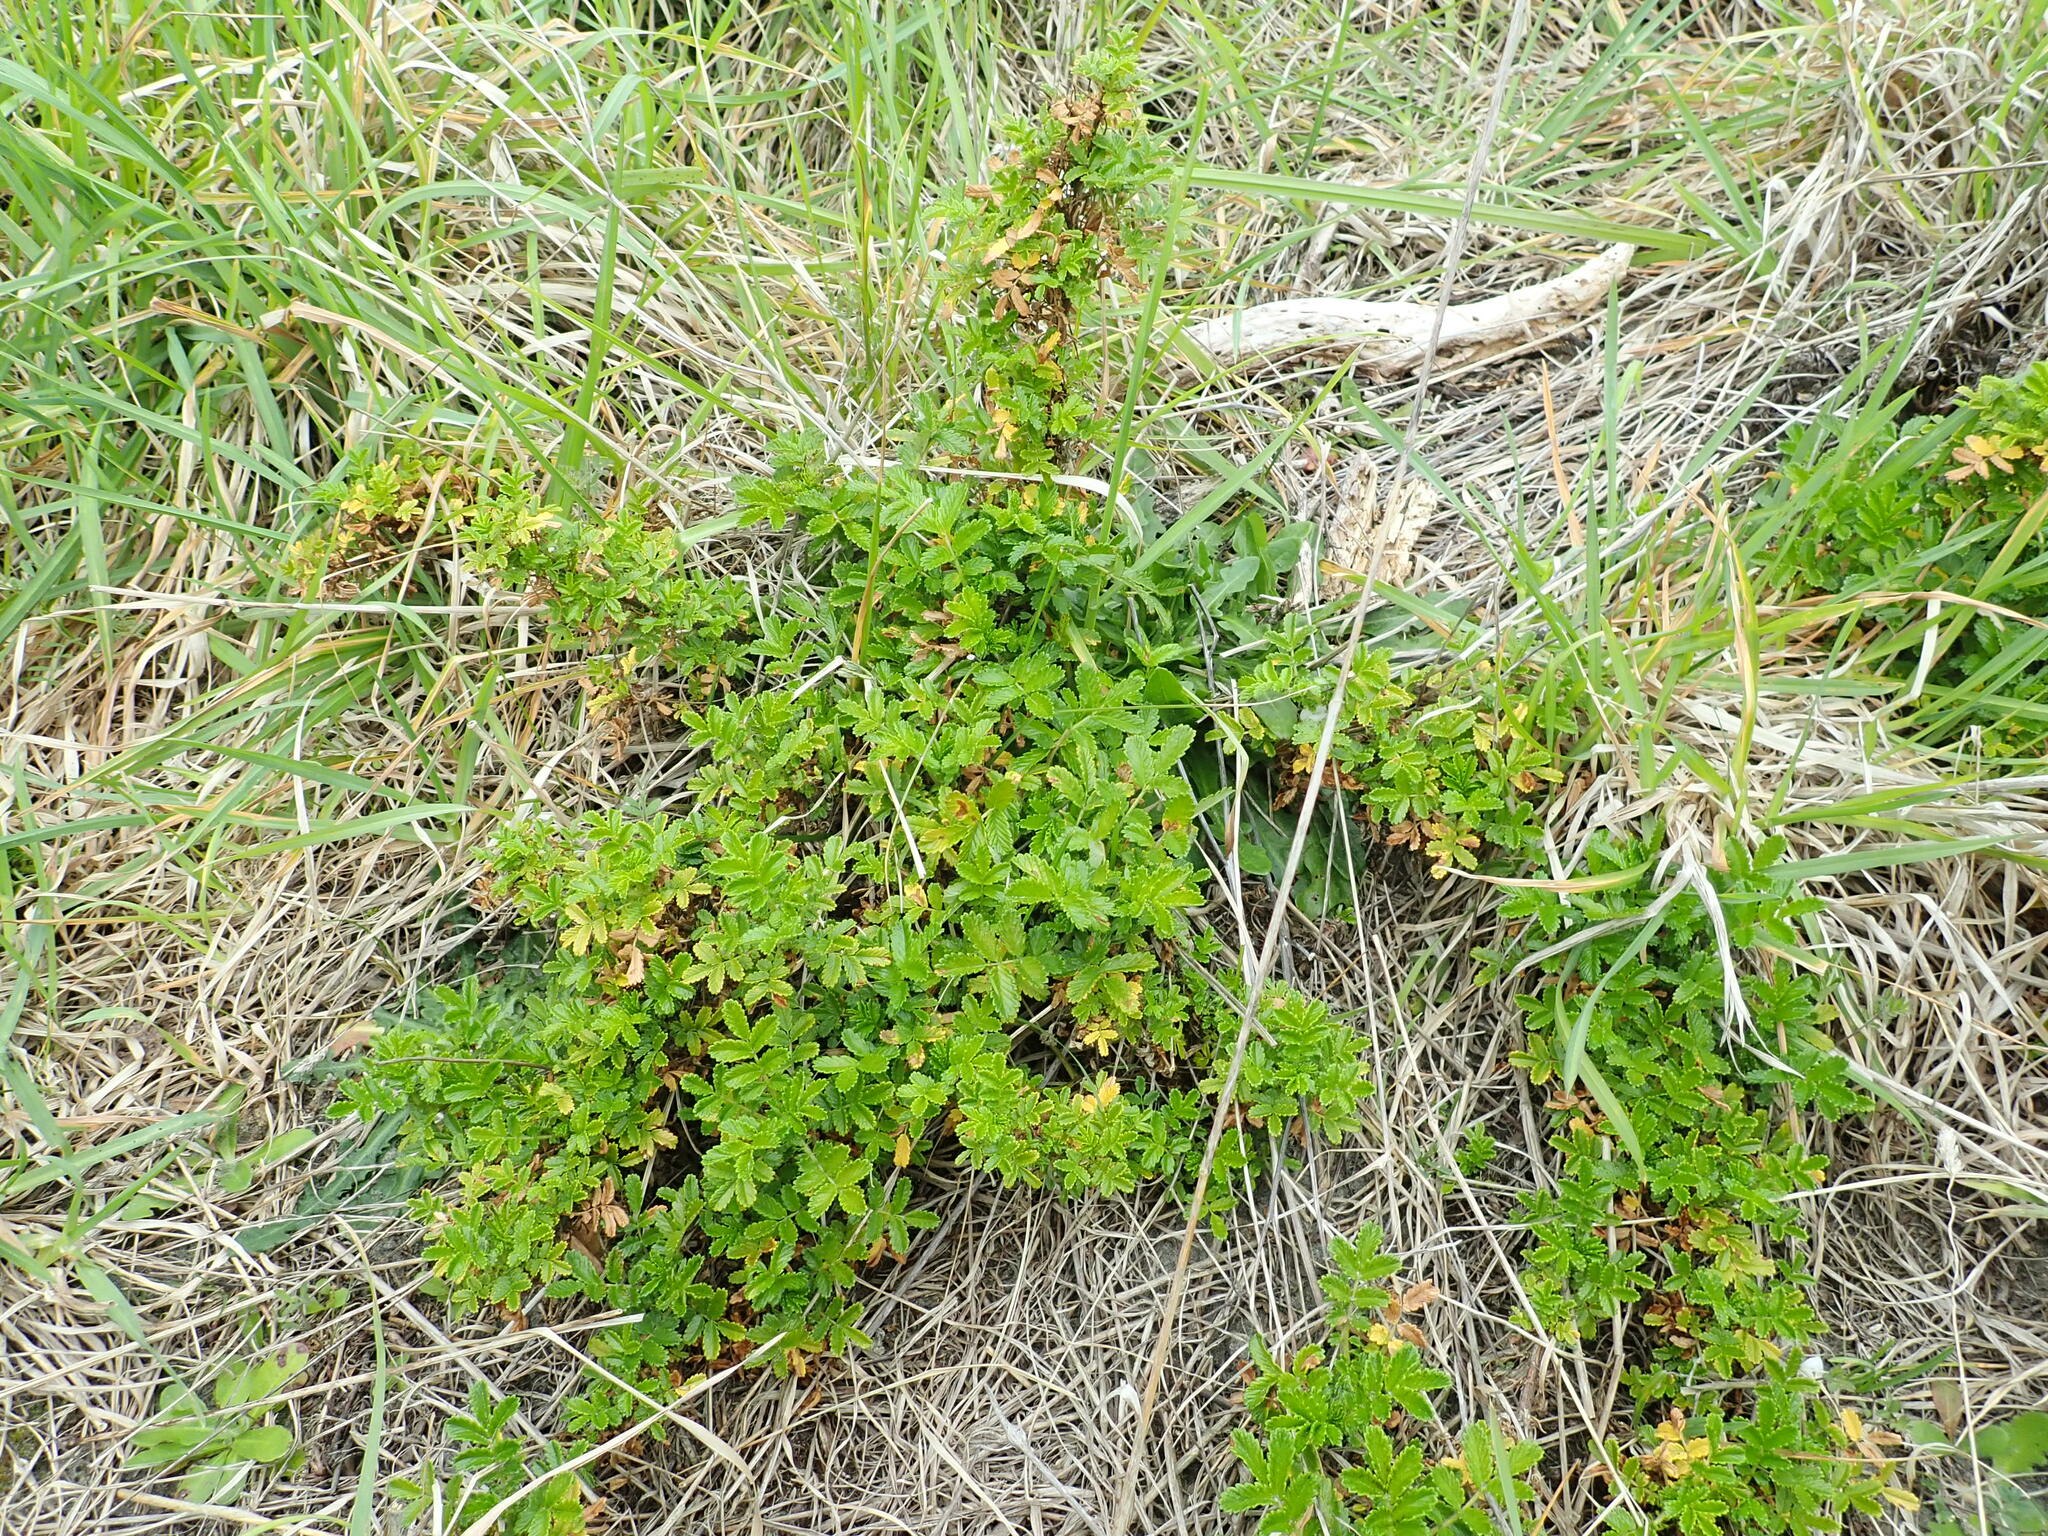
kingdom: Plantae
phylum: Tracheophyta
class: Magnoliopsida
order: Rosales
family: Rosaceae
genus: Acaena
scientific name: Acaena novae-zelandiae
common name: Pirri-pirri-bur
